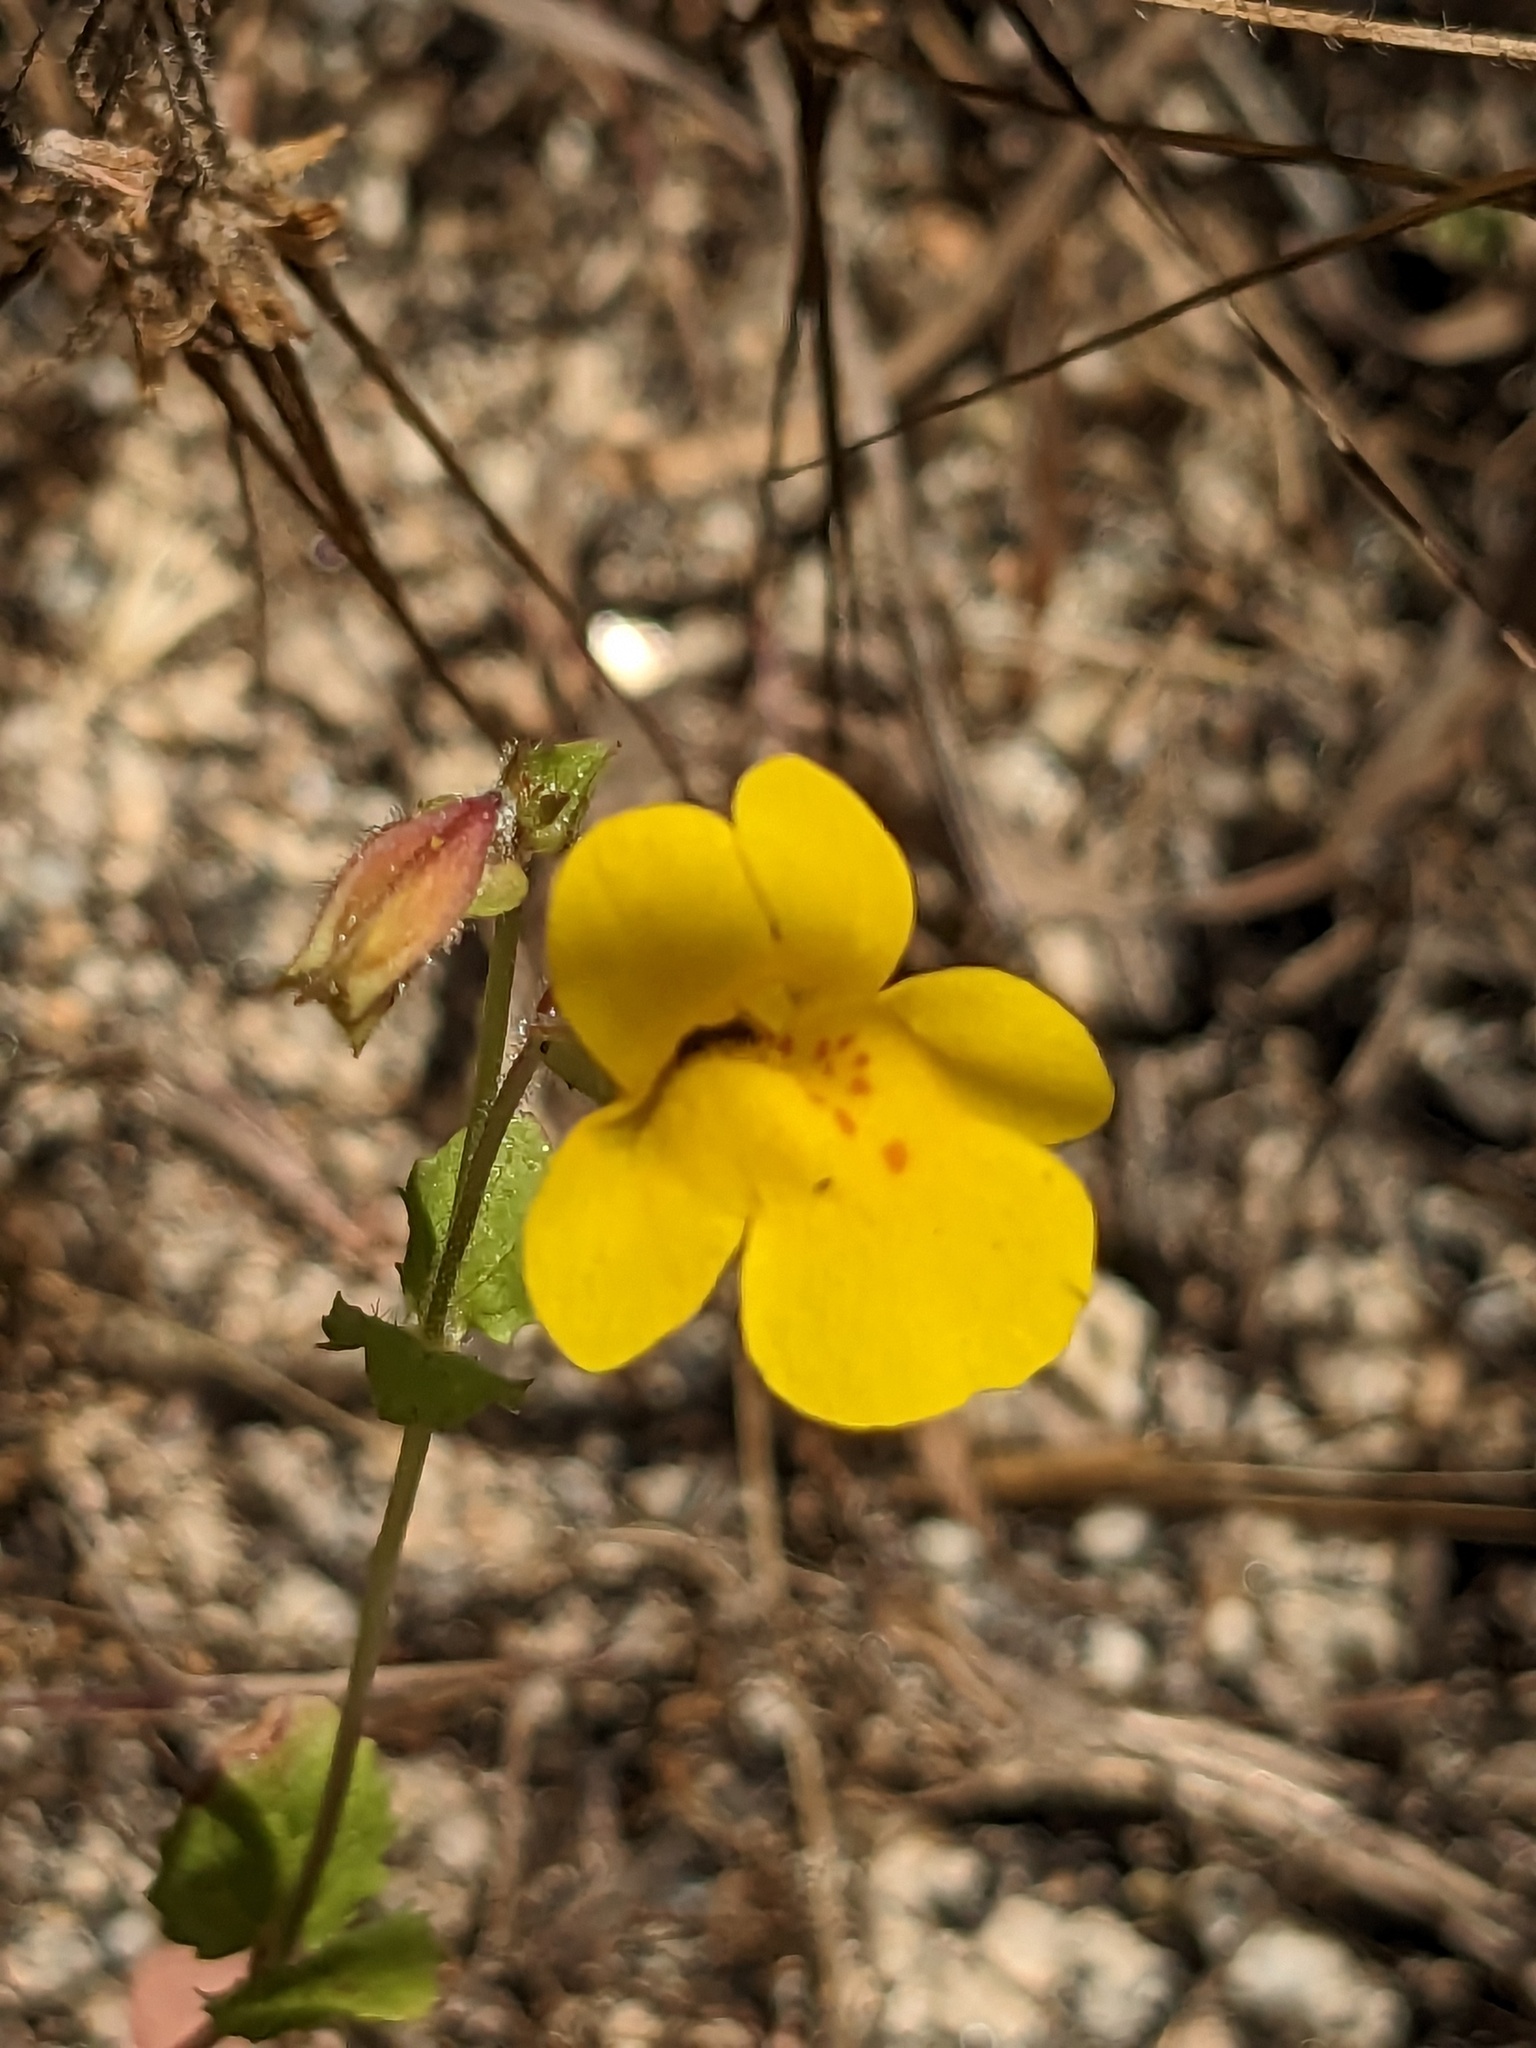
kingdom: Plantae
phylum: Tracheophyta
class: Magnoliopsida
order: Lamiales
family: Phrymaceae
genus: Erythranthe
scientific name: Erythranthe guttata
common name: Monkeyflower
